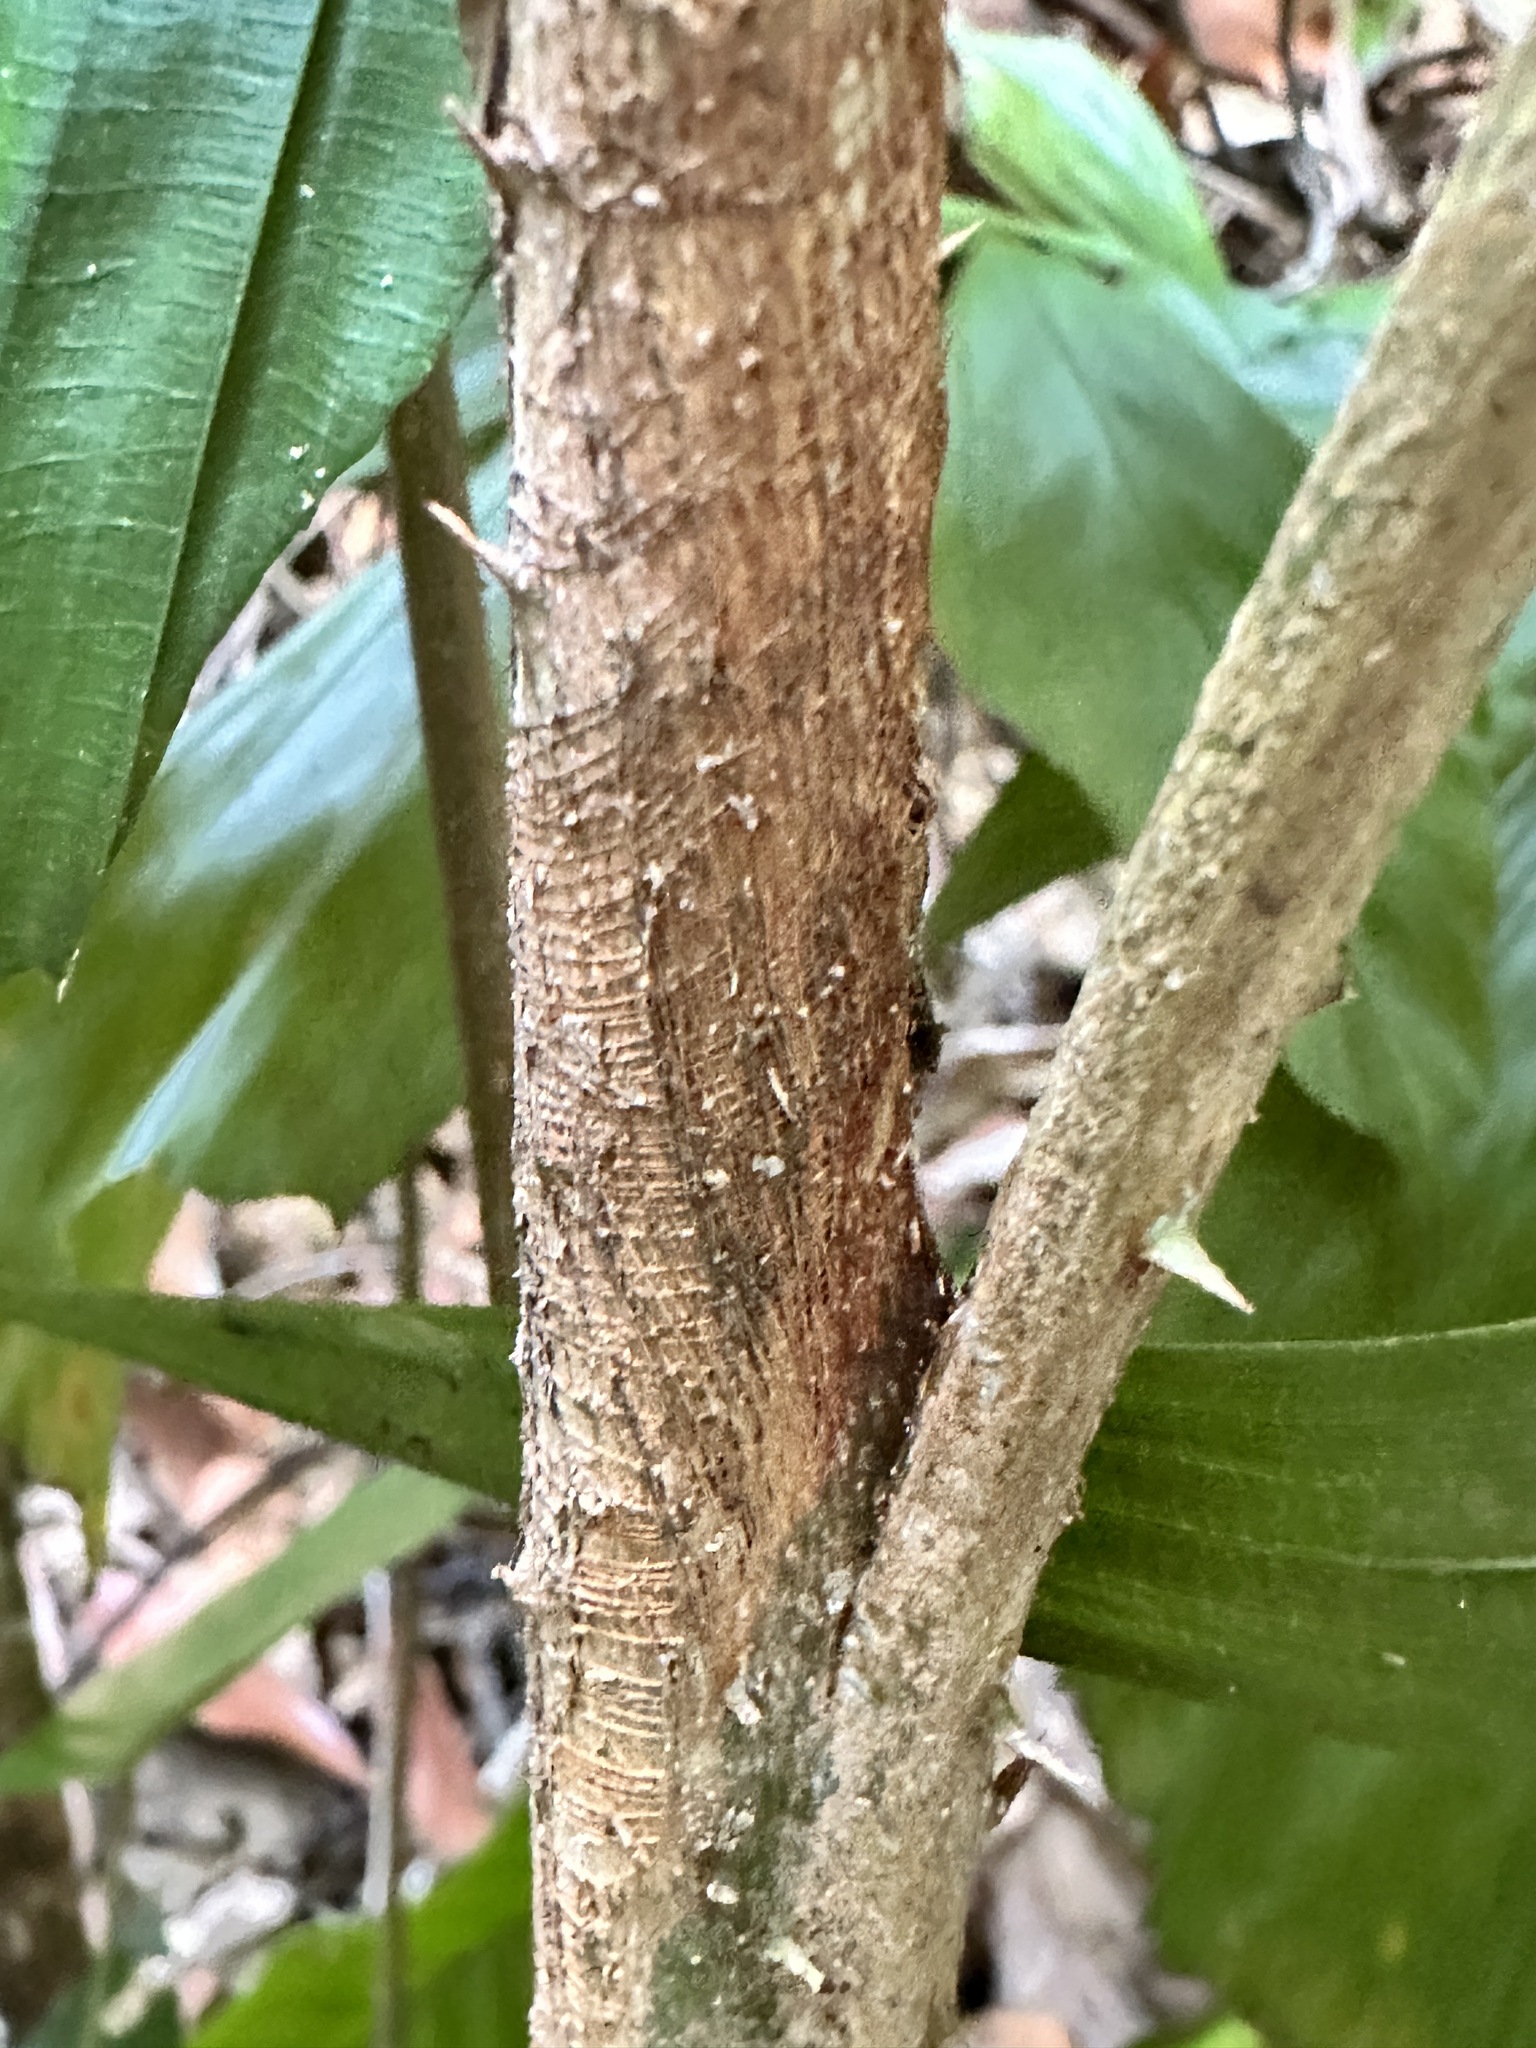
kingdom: Plantae
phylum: Tracheophyta
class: Liliopsida
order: Arecales
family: Arecaceae
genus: Korthalsia
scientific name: Korthalsia rigida
